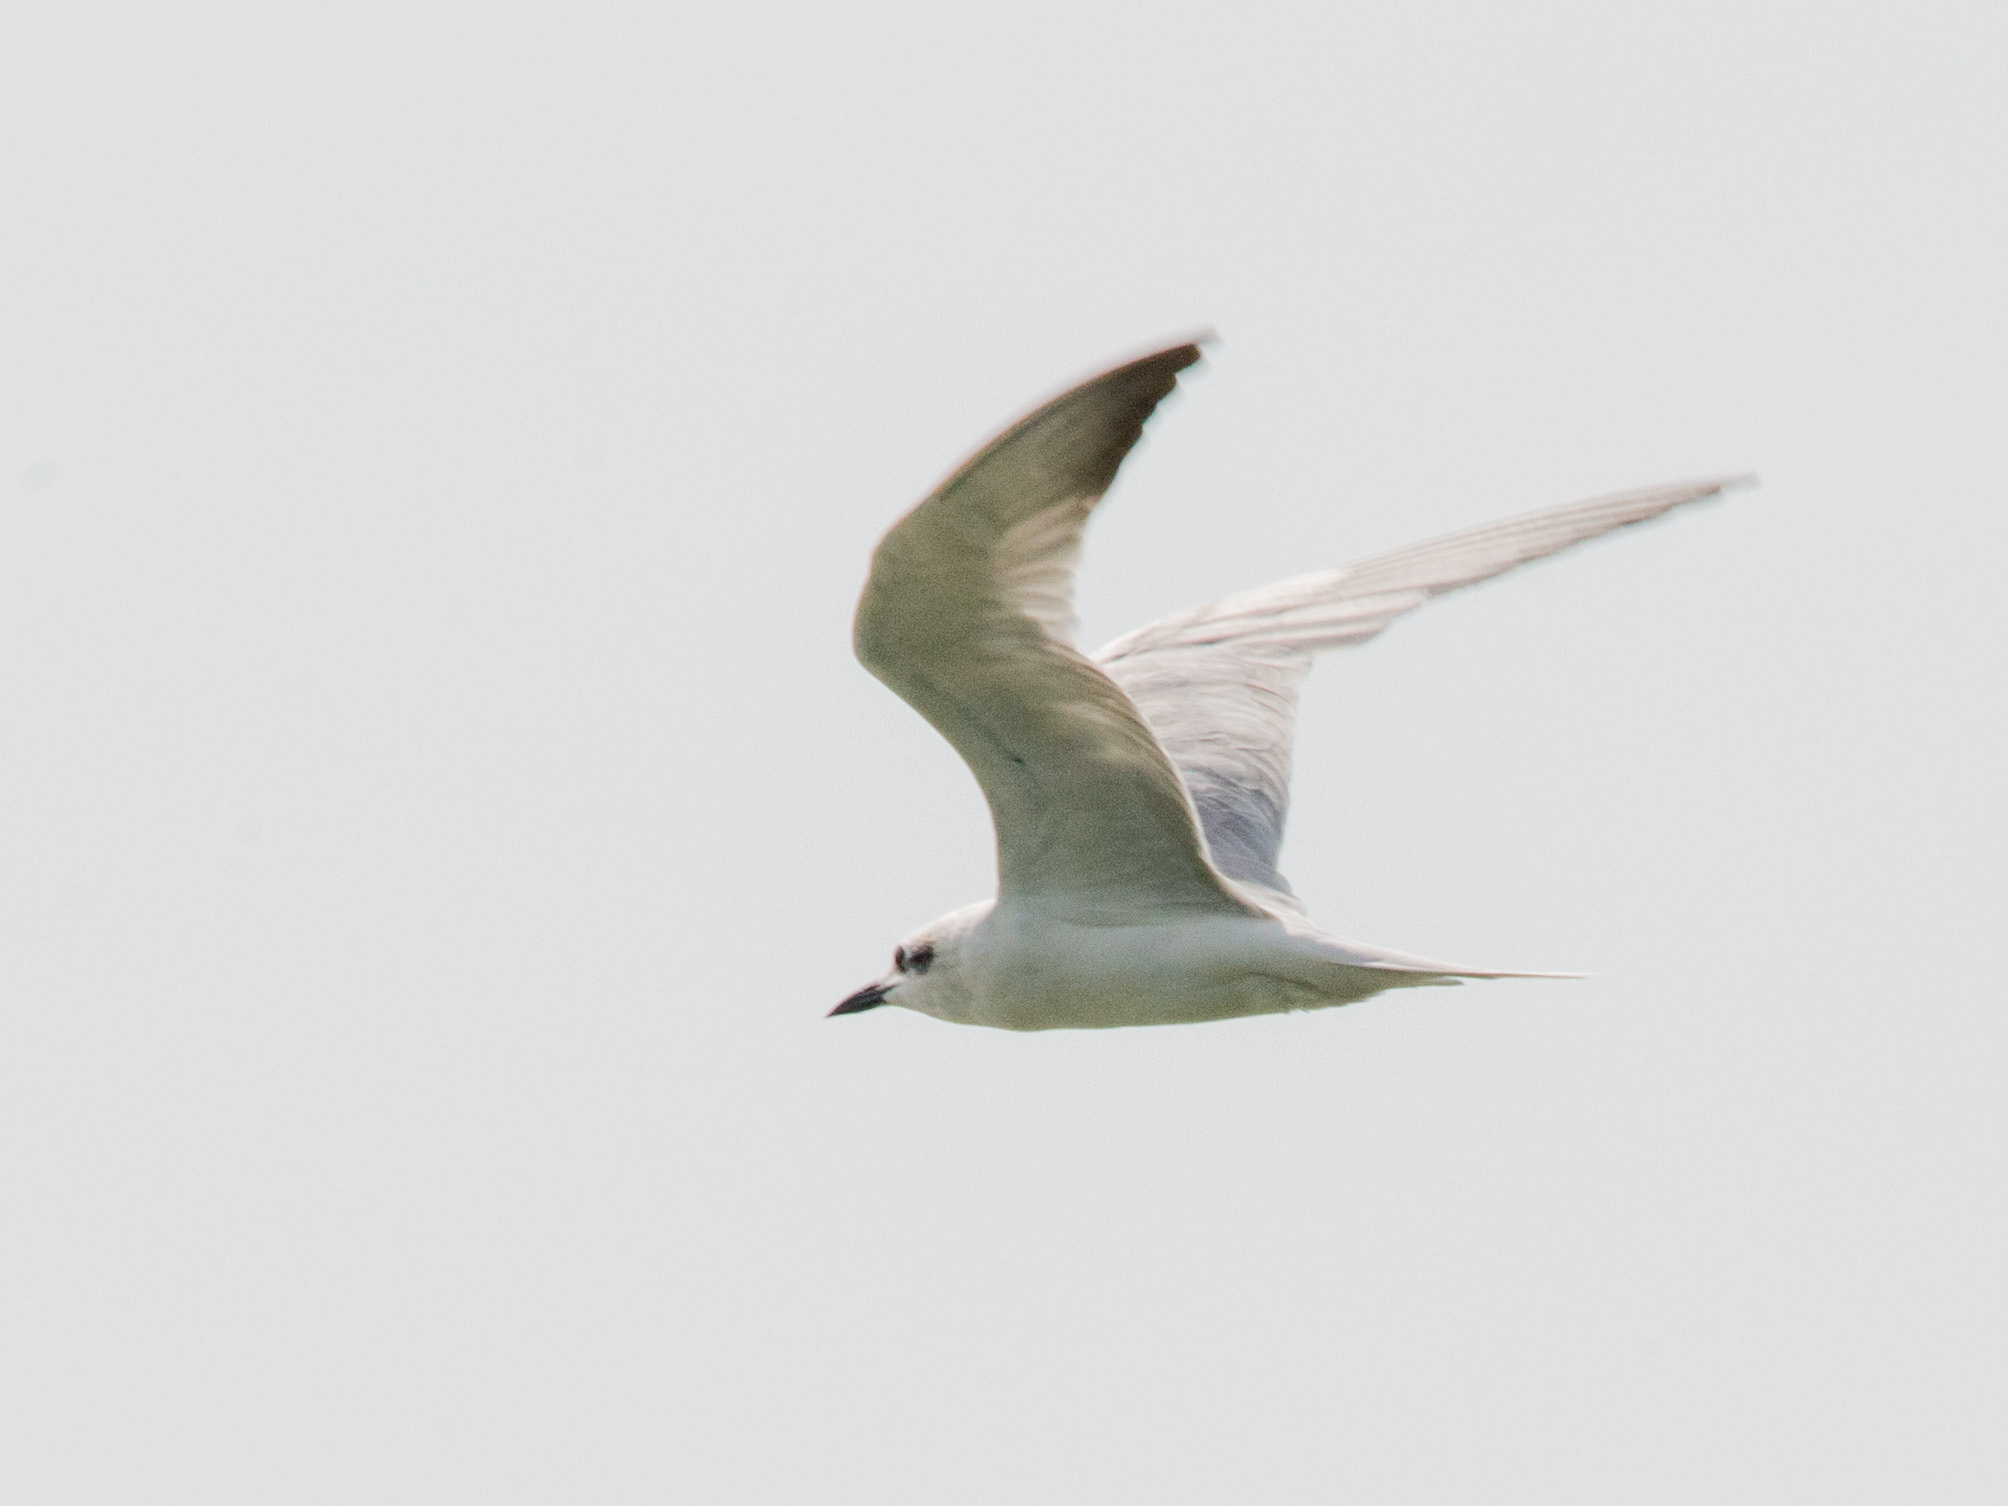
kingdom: Animalia
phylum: Chordata
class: Aves
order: Charadriiformes
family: Laridae
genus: Gelochelidon
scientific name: Gelochelidon nilotica
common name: Gull-billed tern
